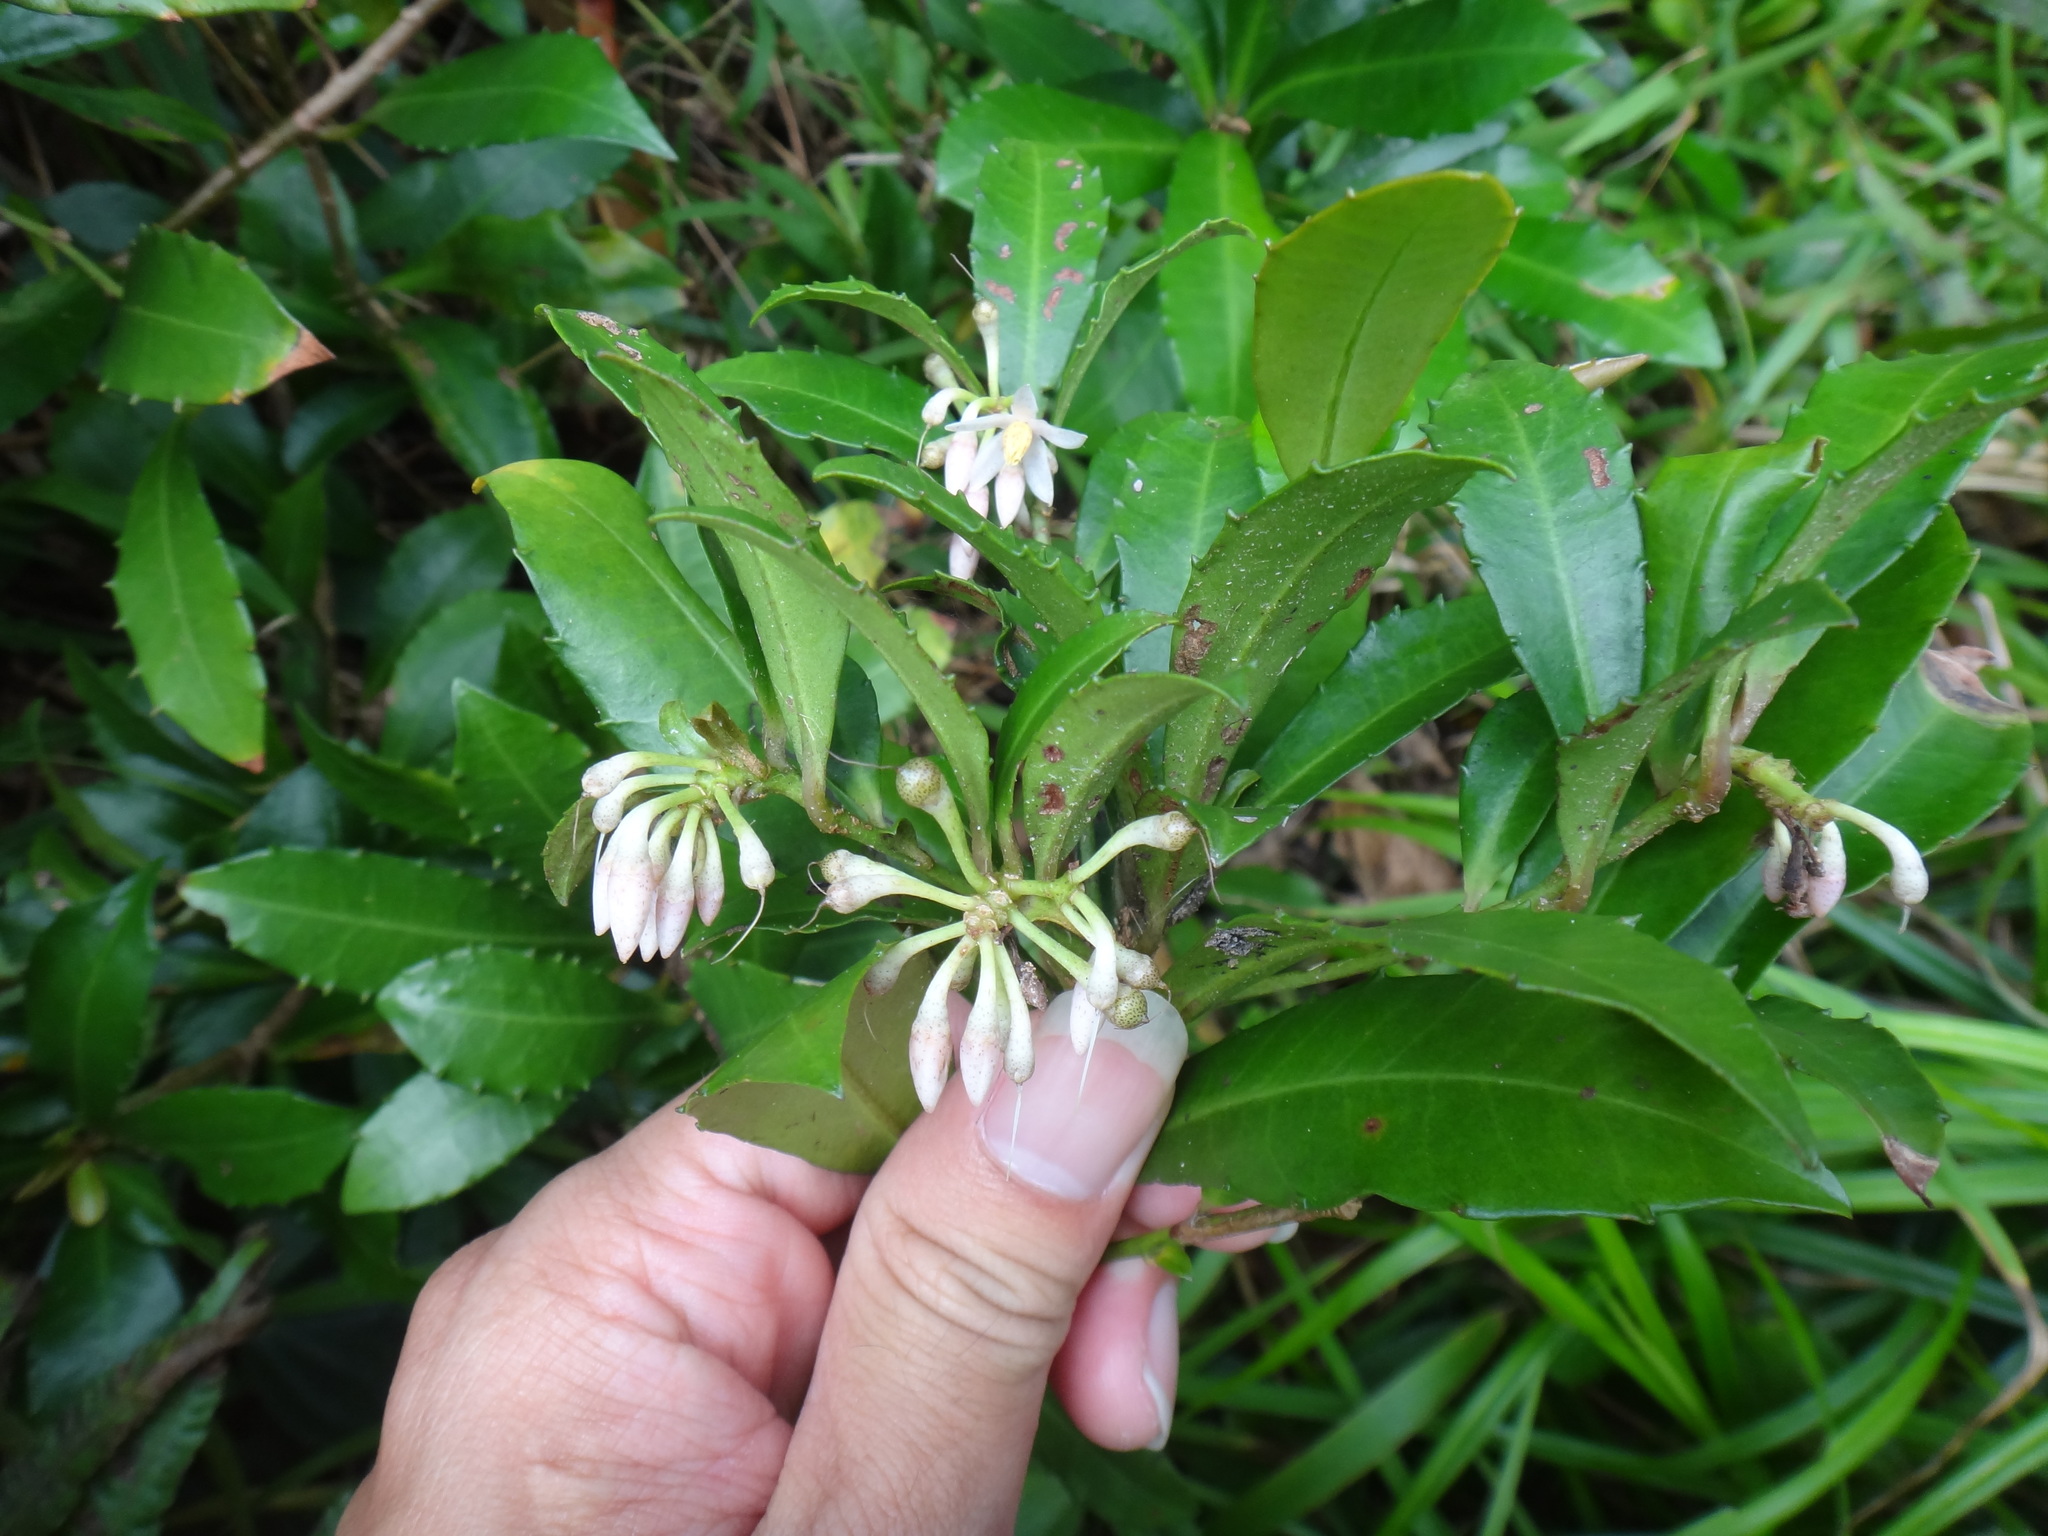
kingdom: Plantae
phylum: Tracheophyta
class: Magnoliopsida
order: Ericales
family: Primulaceae
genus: Ardisia
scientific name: Ardisia cornudentata
